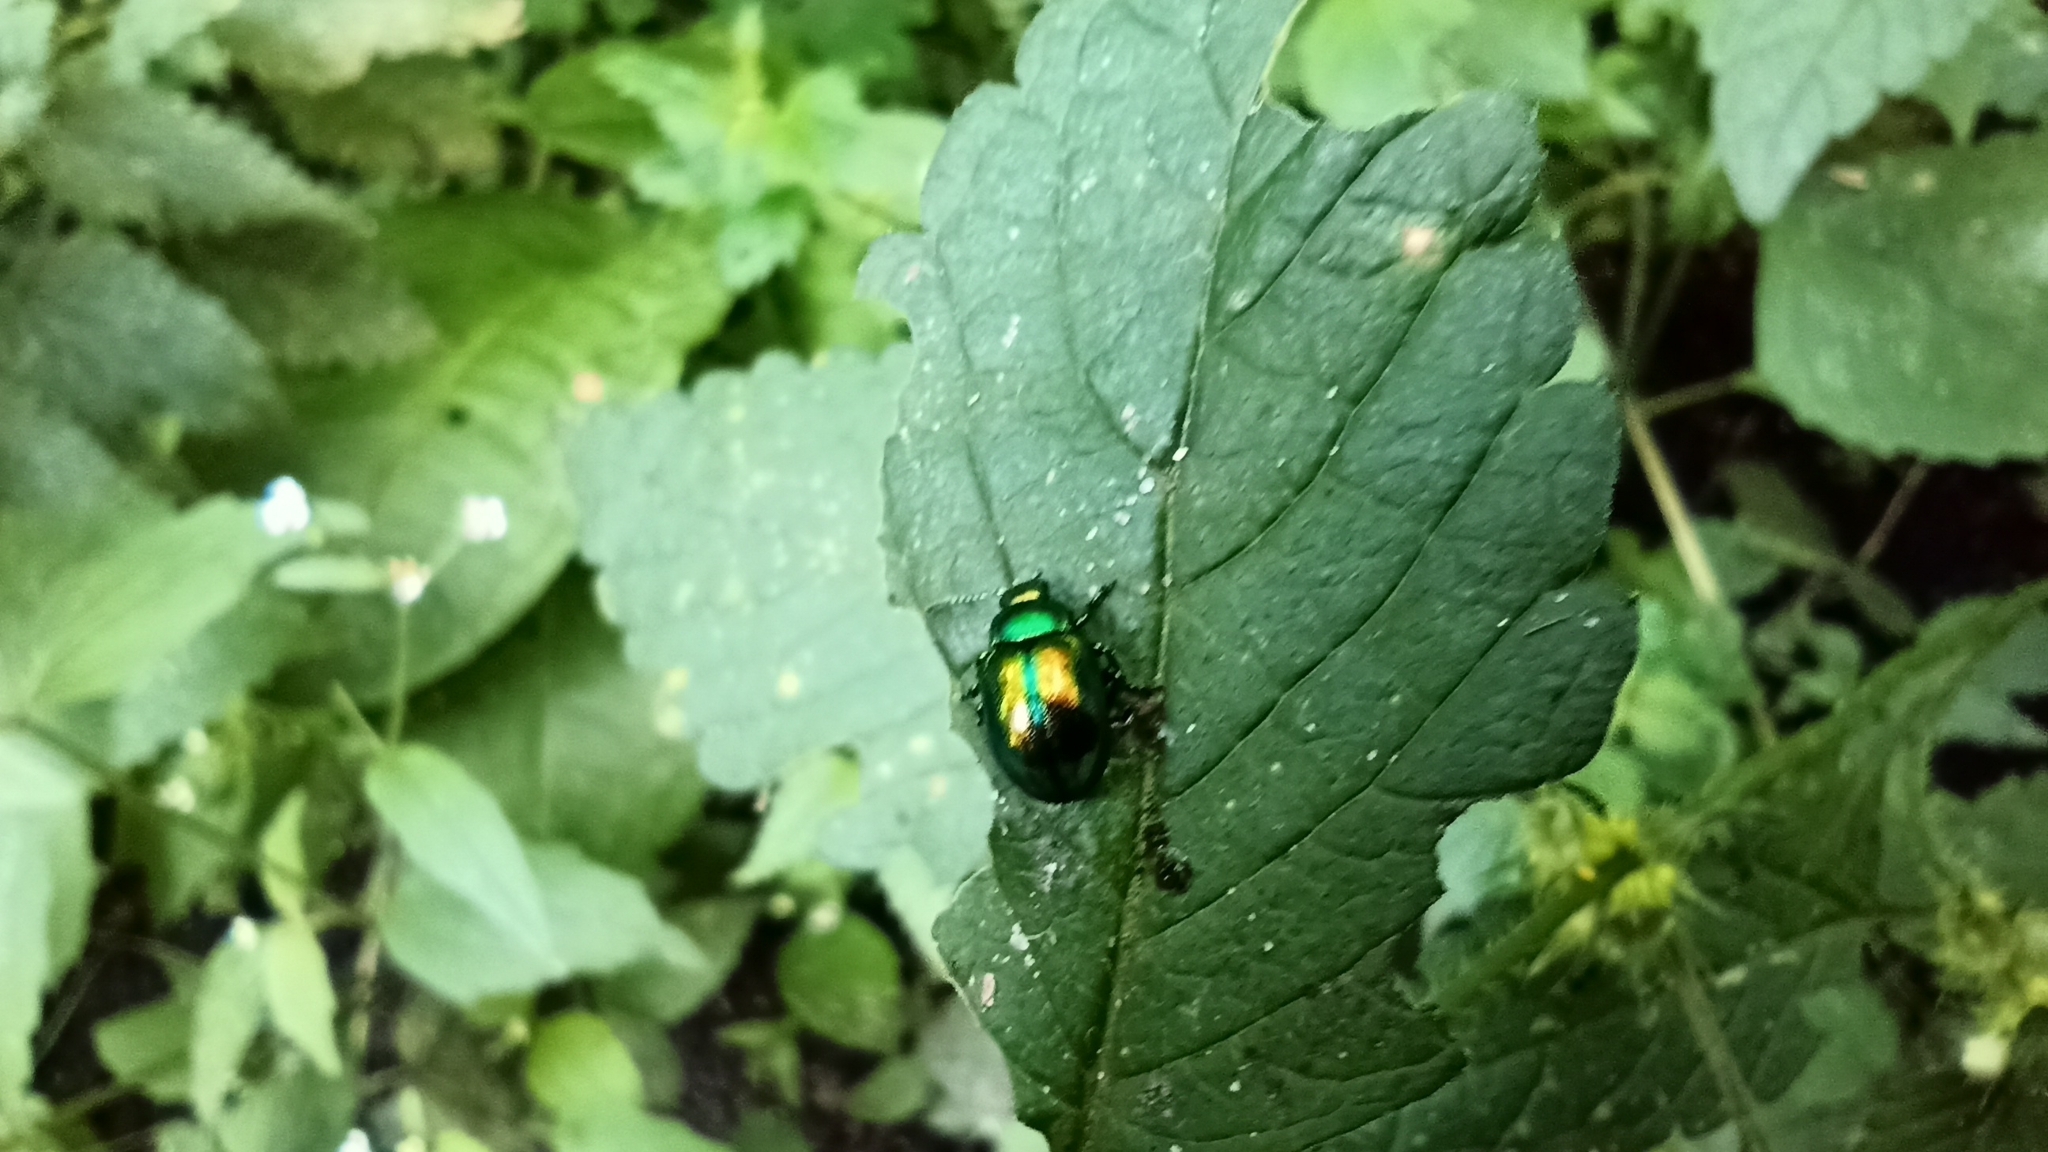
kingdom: Animalia
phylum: Arthropoda
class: Insecta
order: Coleoptera
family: Chrysomelidae
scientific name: Chrysomelidae
